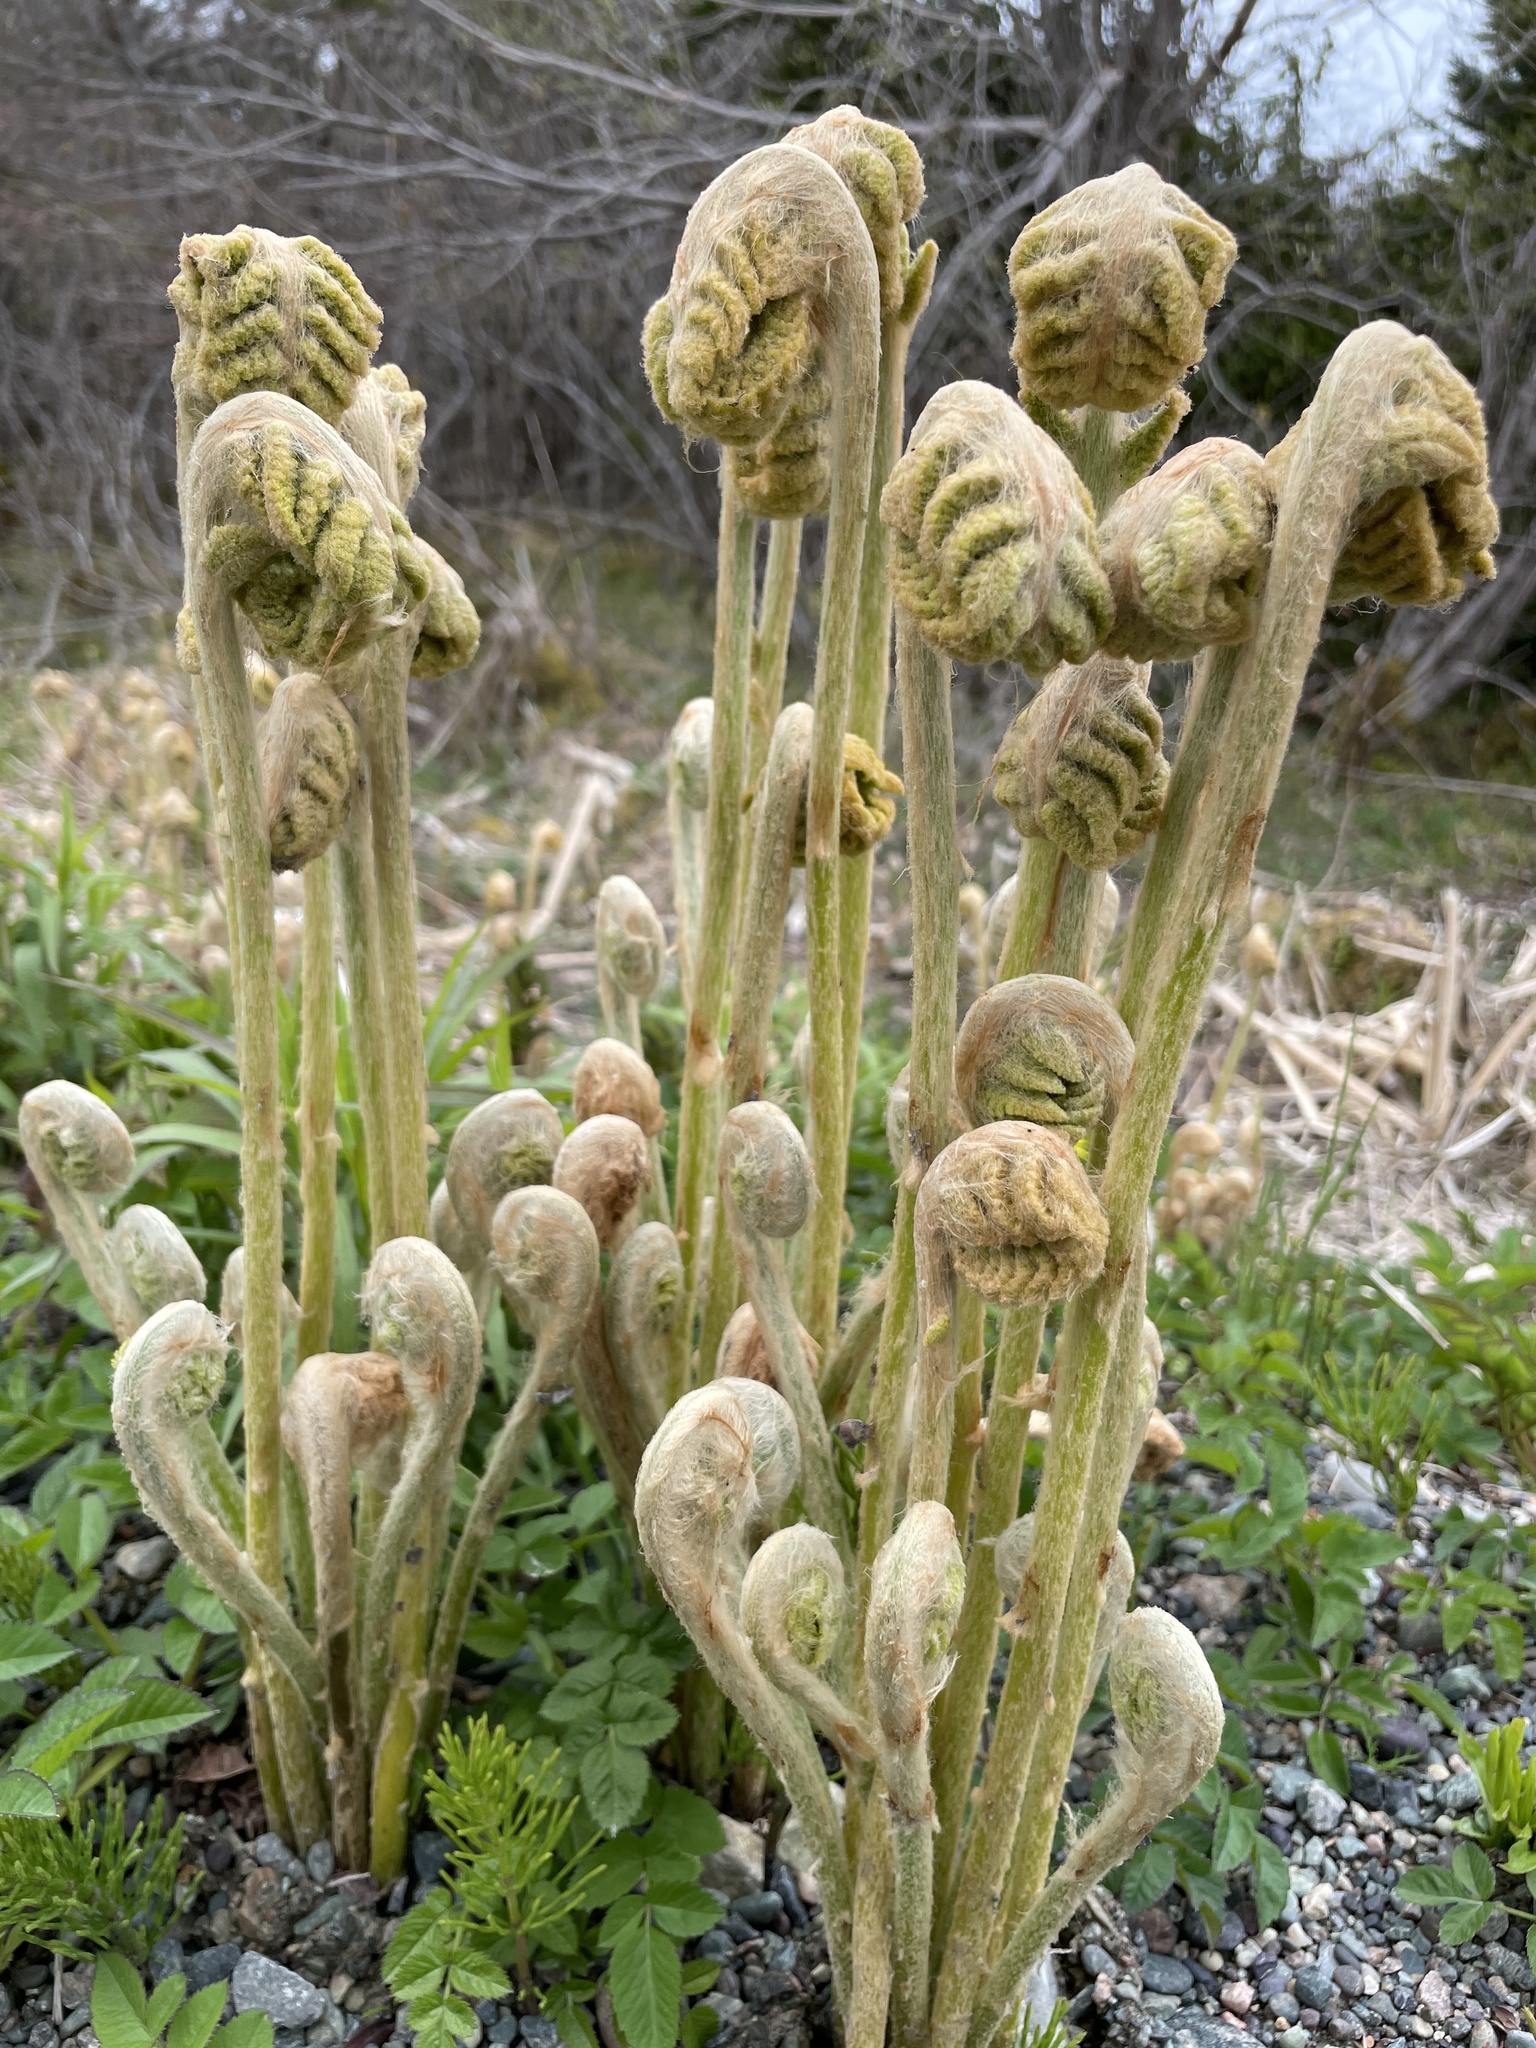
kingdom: Plantae
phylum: Tracheophyta
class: Polypodiopsida
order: Osmundales
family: Osmundaceae
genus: Osmundastrum
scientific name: Osmundastrum cinnamomeum
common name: Cinnamon fern
